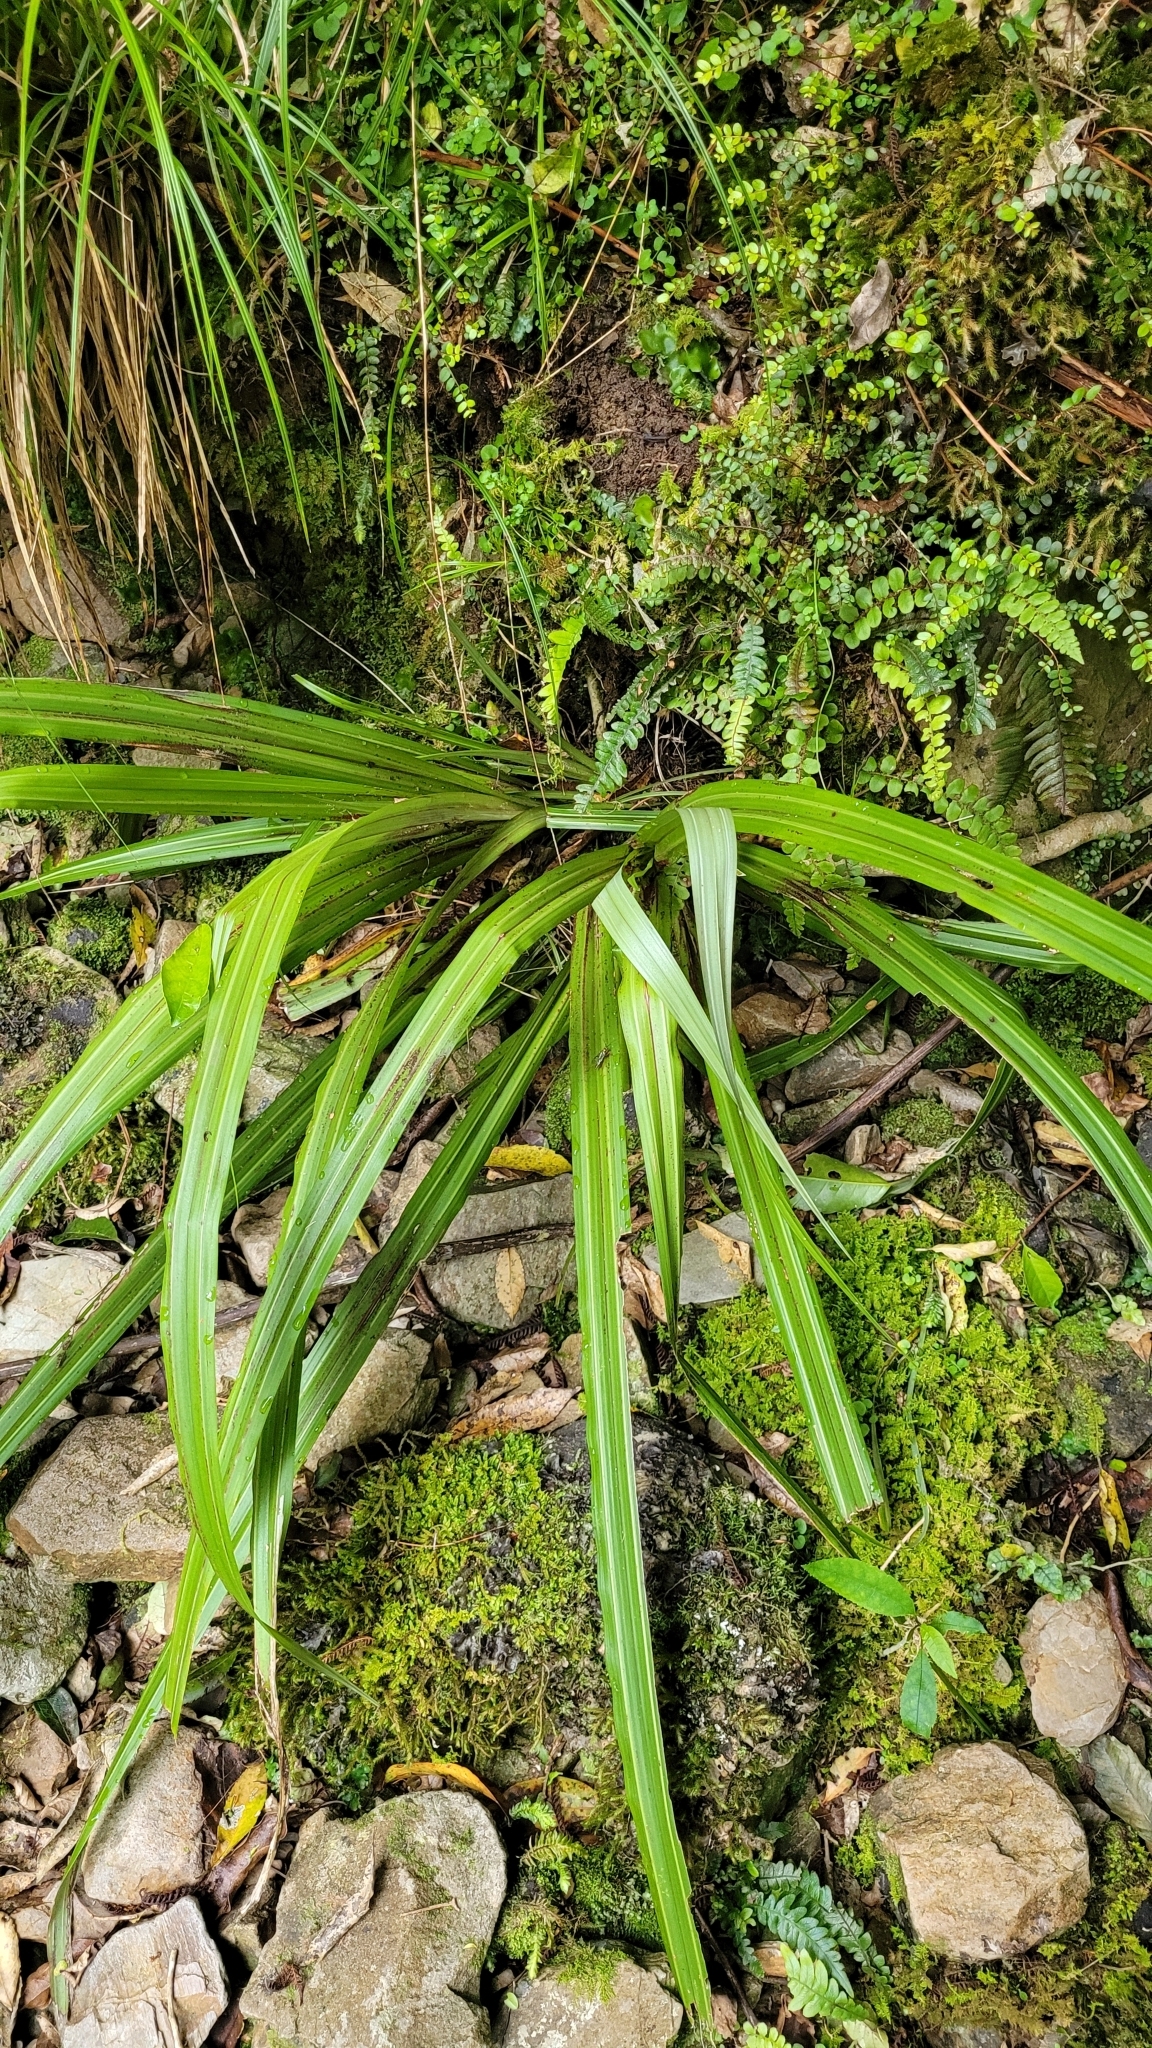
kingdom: Plantae
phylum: Tracheophyta
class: Liliopsida
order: Asparagales
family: Asteliaceae
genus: Astelia
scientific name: Astelia fragrans
